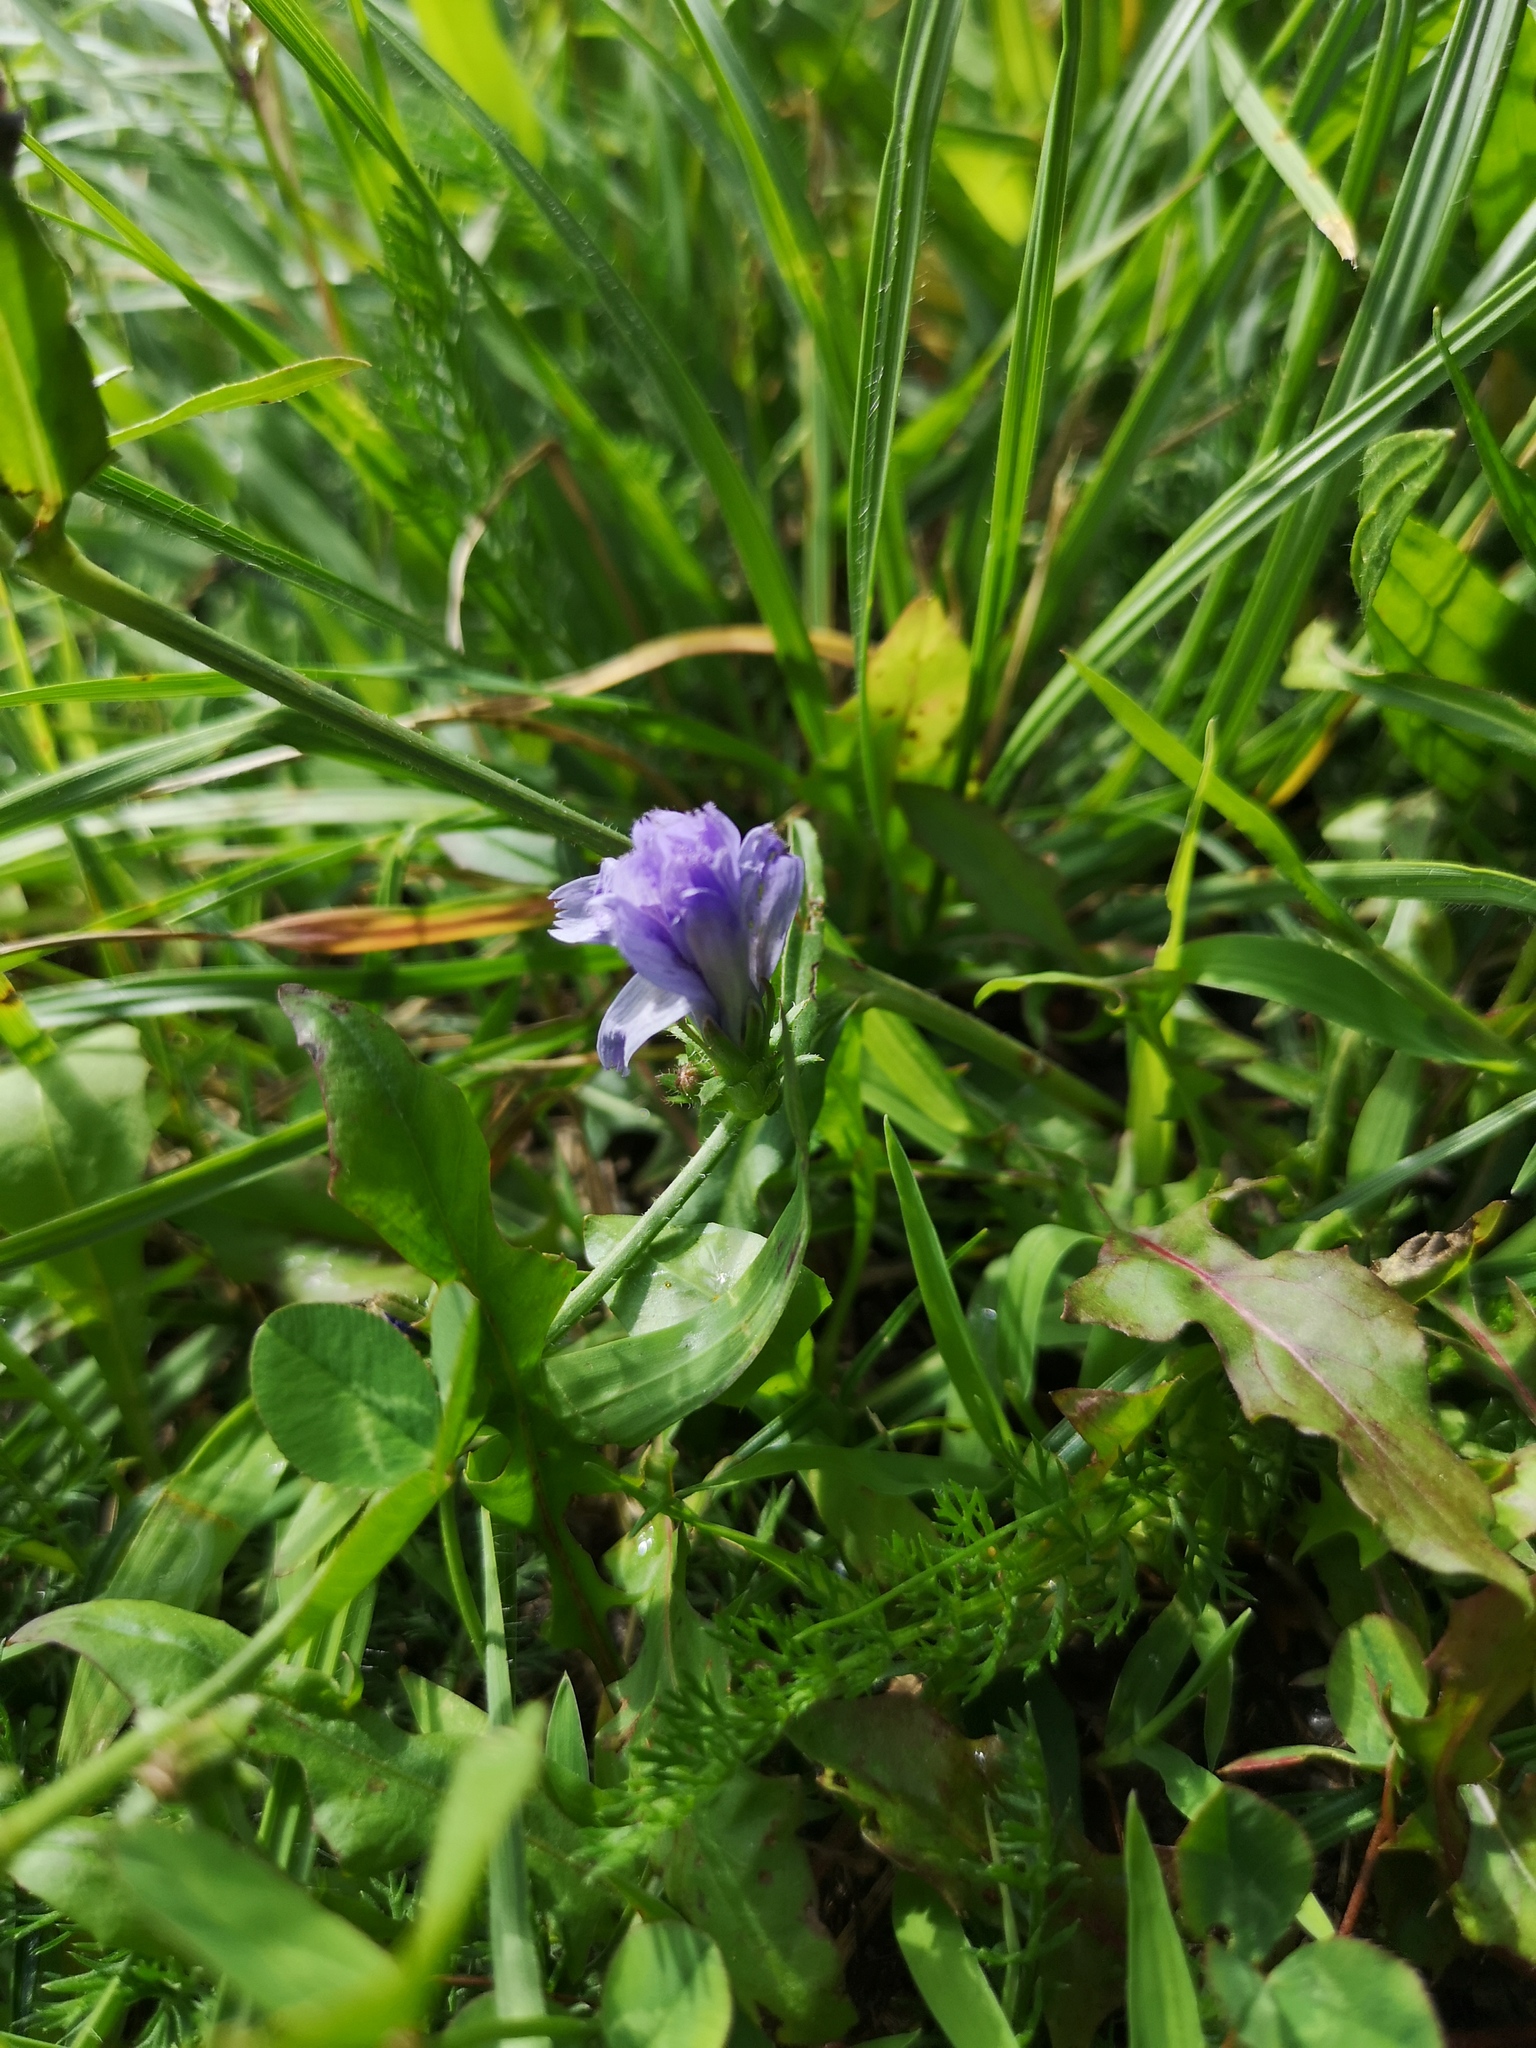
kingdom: Plantae
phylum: Tracheophyta
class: Magnoliopsida
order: Asterales
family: Asteraceae
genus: Cichorium
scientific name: Cichorium intybus
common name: Chicory
